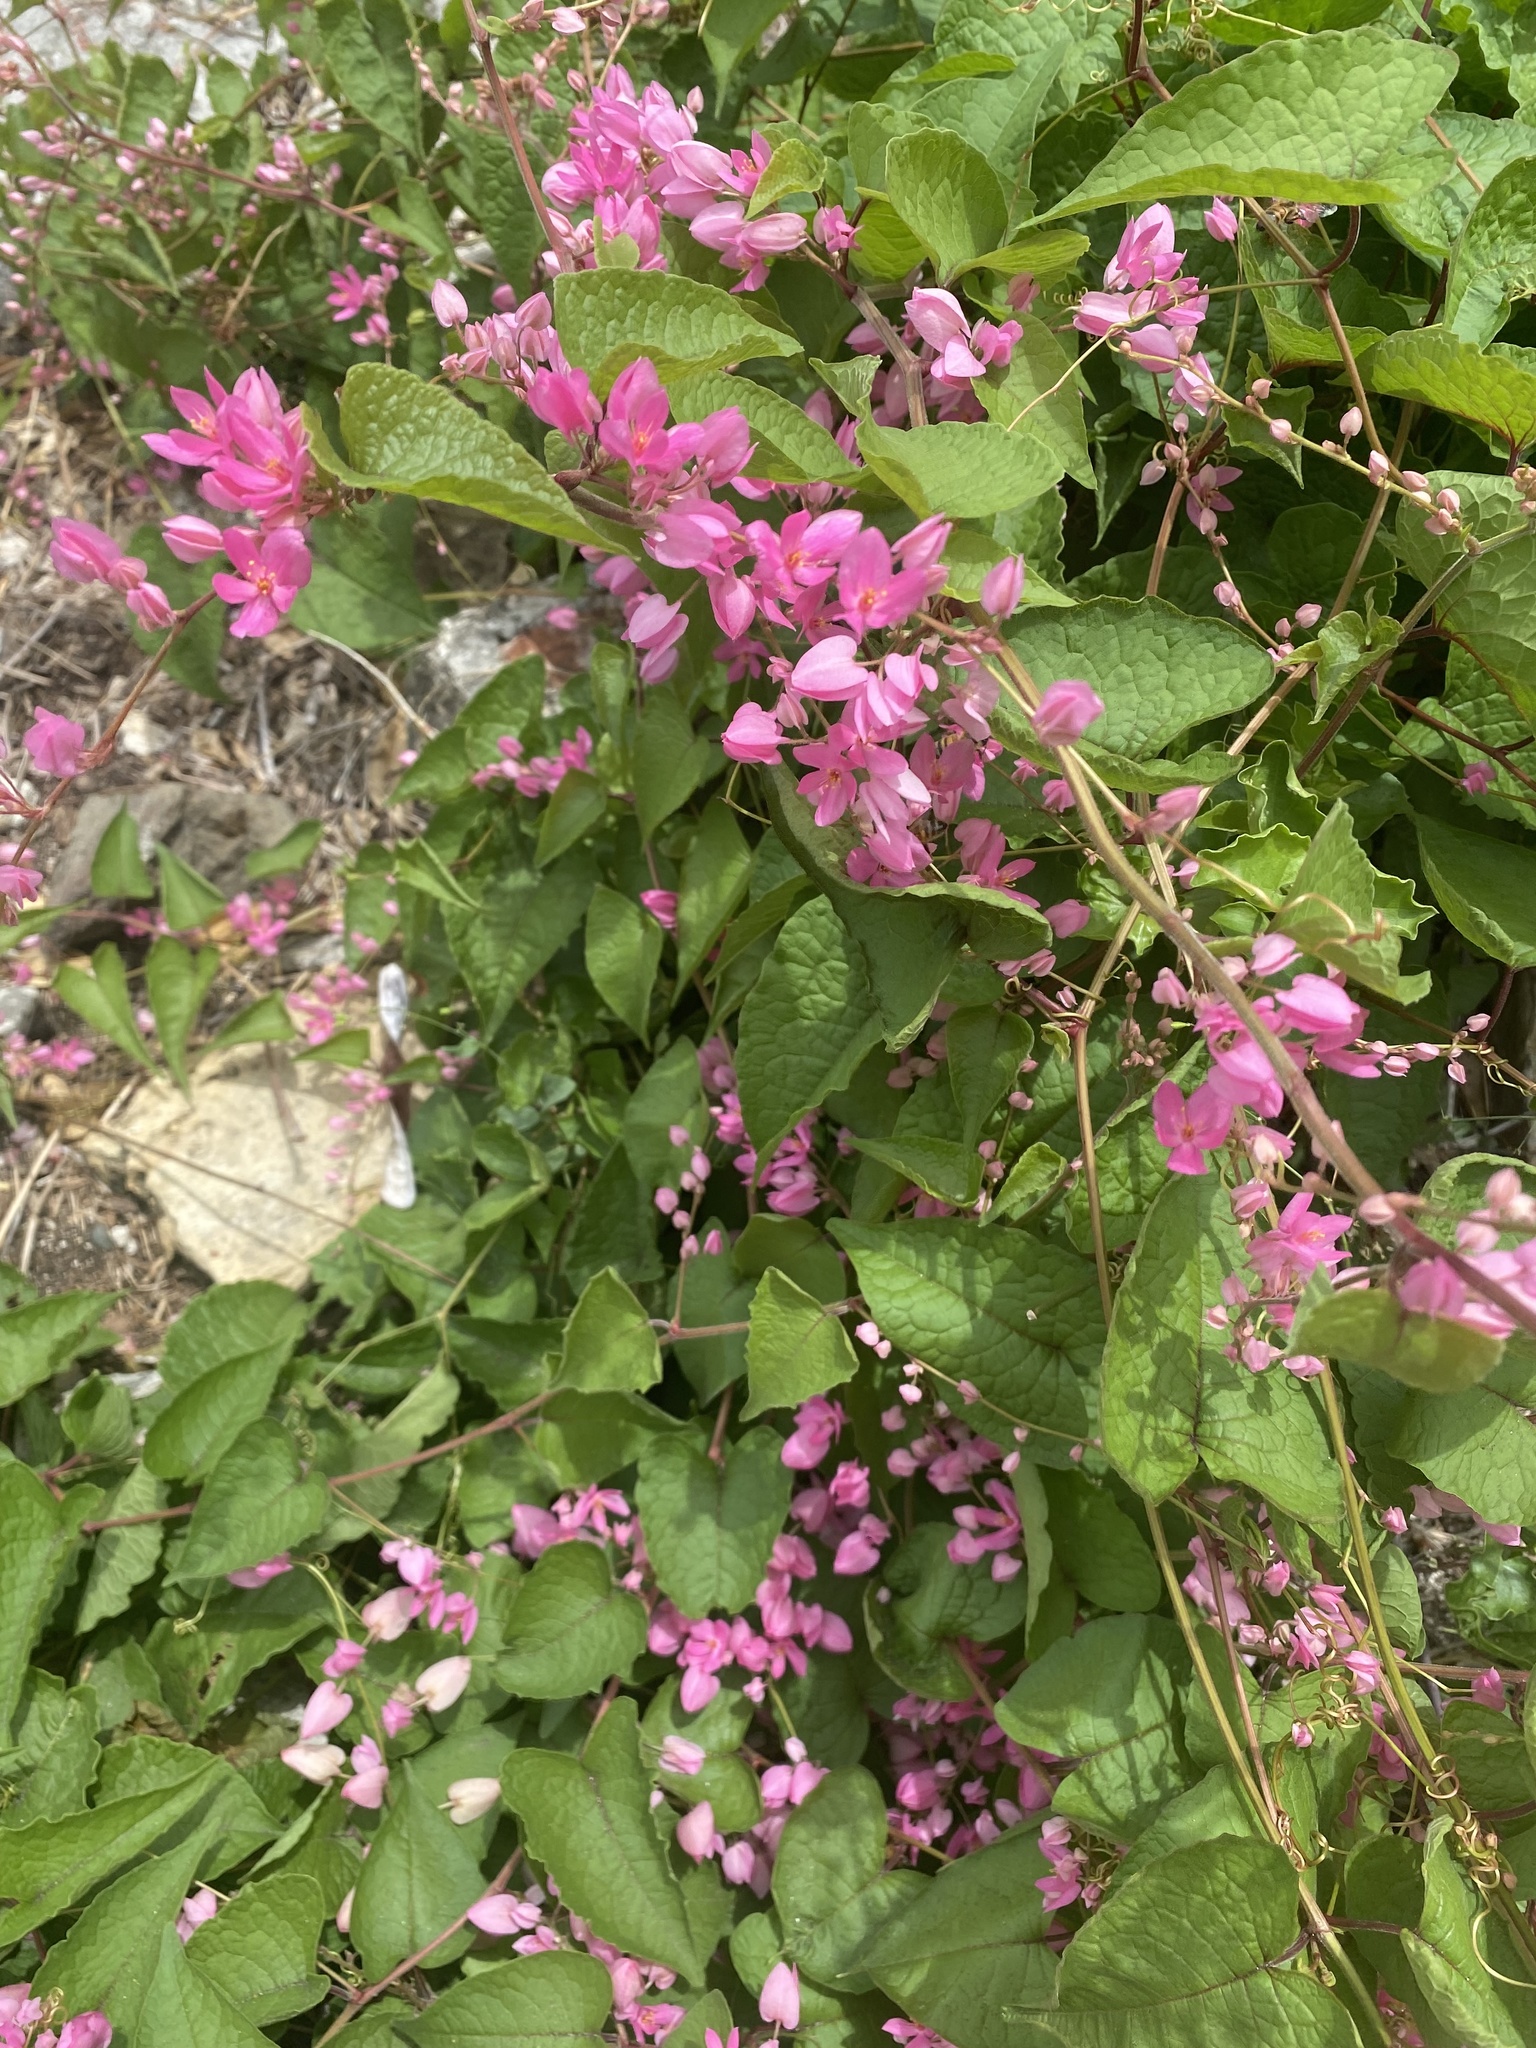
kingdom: Plantae
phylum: Tracheophyta
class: Magnoliopsida
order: Caryophyllales
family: Polygonaceae
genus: Antigonon
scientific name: Antigonon leptopus
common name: Coral vine
